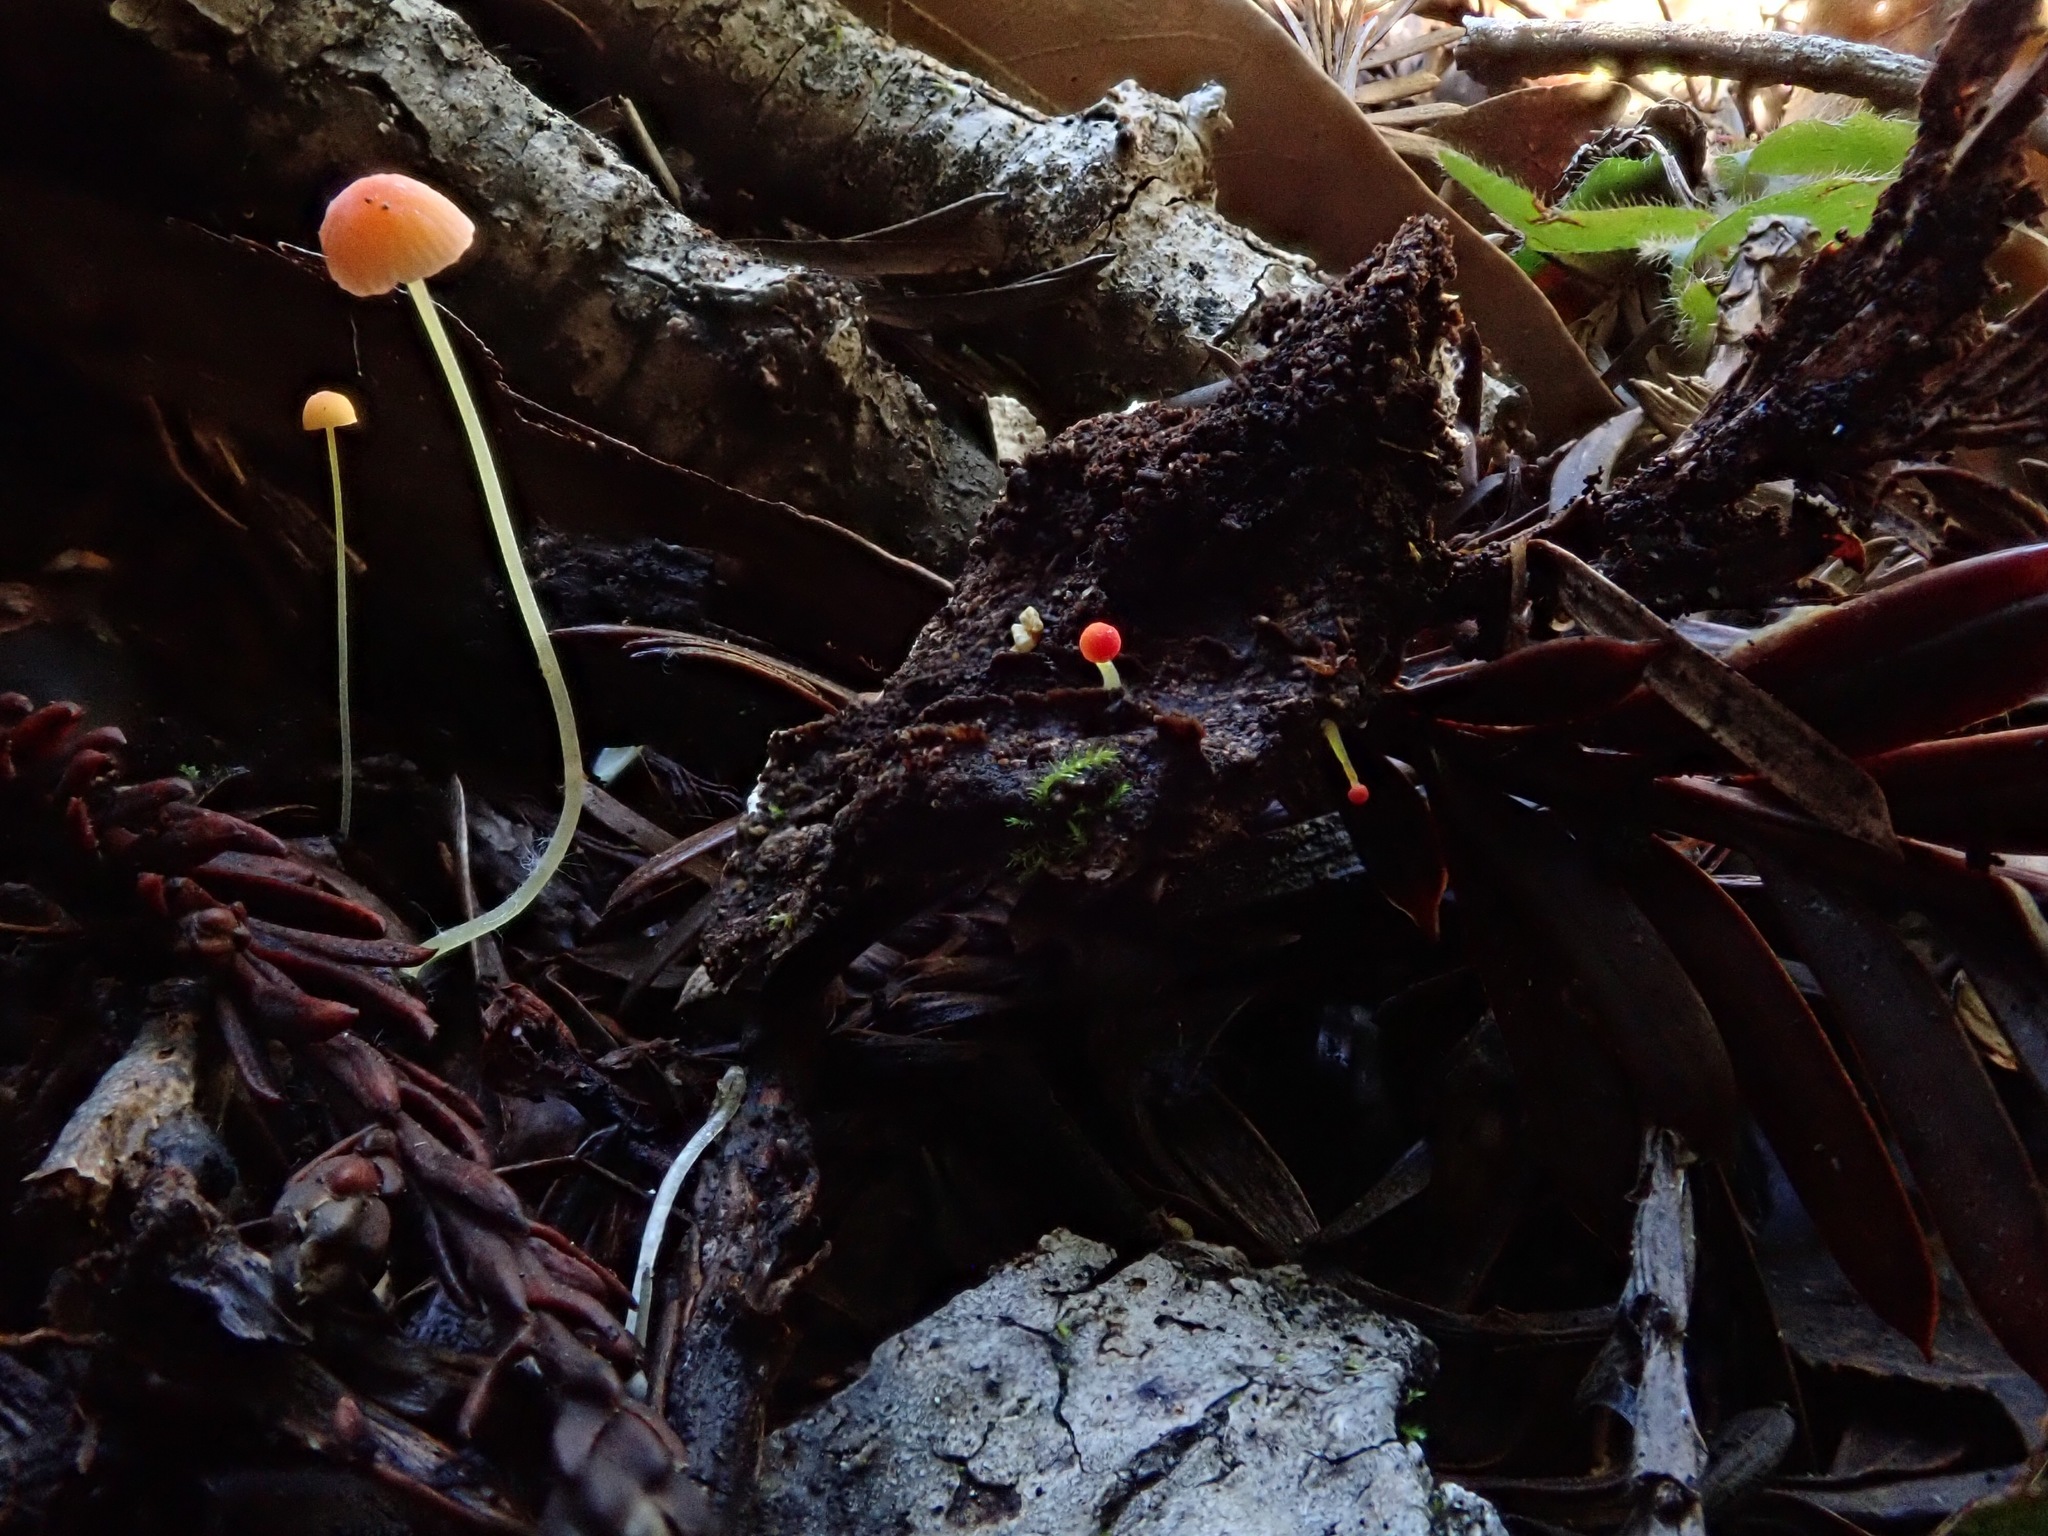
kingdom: Fungi
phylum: Basidiomycota
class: Agaricomycetes
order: Agaricales
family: Mycenaceae
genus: Mycena
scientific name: Mycena acicula
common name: Orange bonnet
